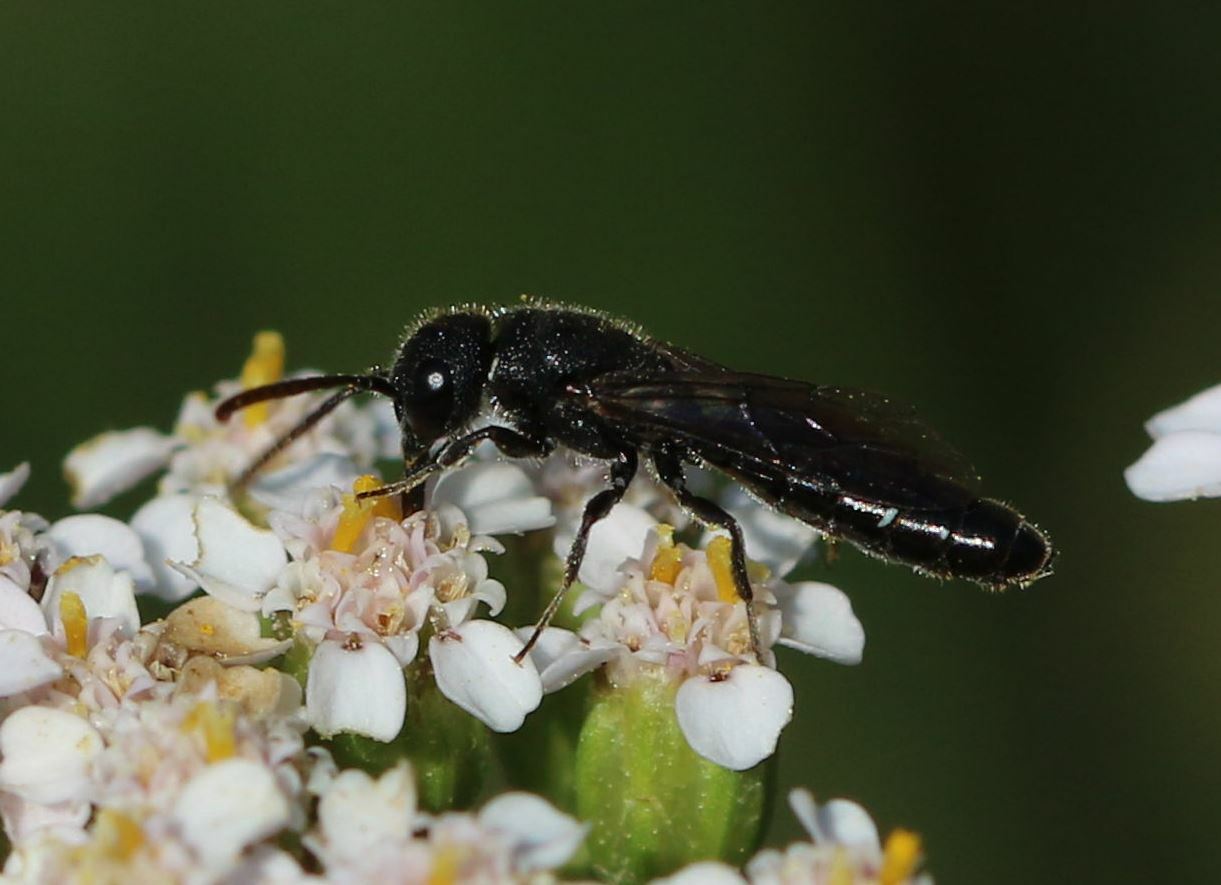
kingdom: Animalia
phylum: Arthropoda
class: Insecta
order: Hymenoptera
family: Sapygidae
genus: Sapygina
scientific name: Sapygina decemguttata
